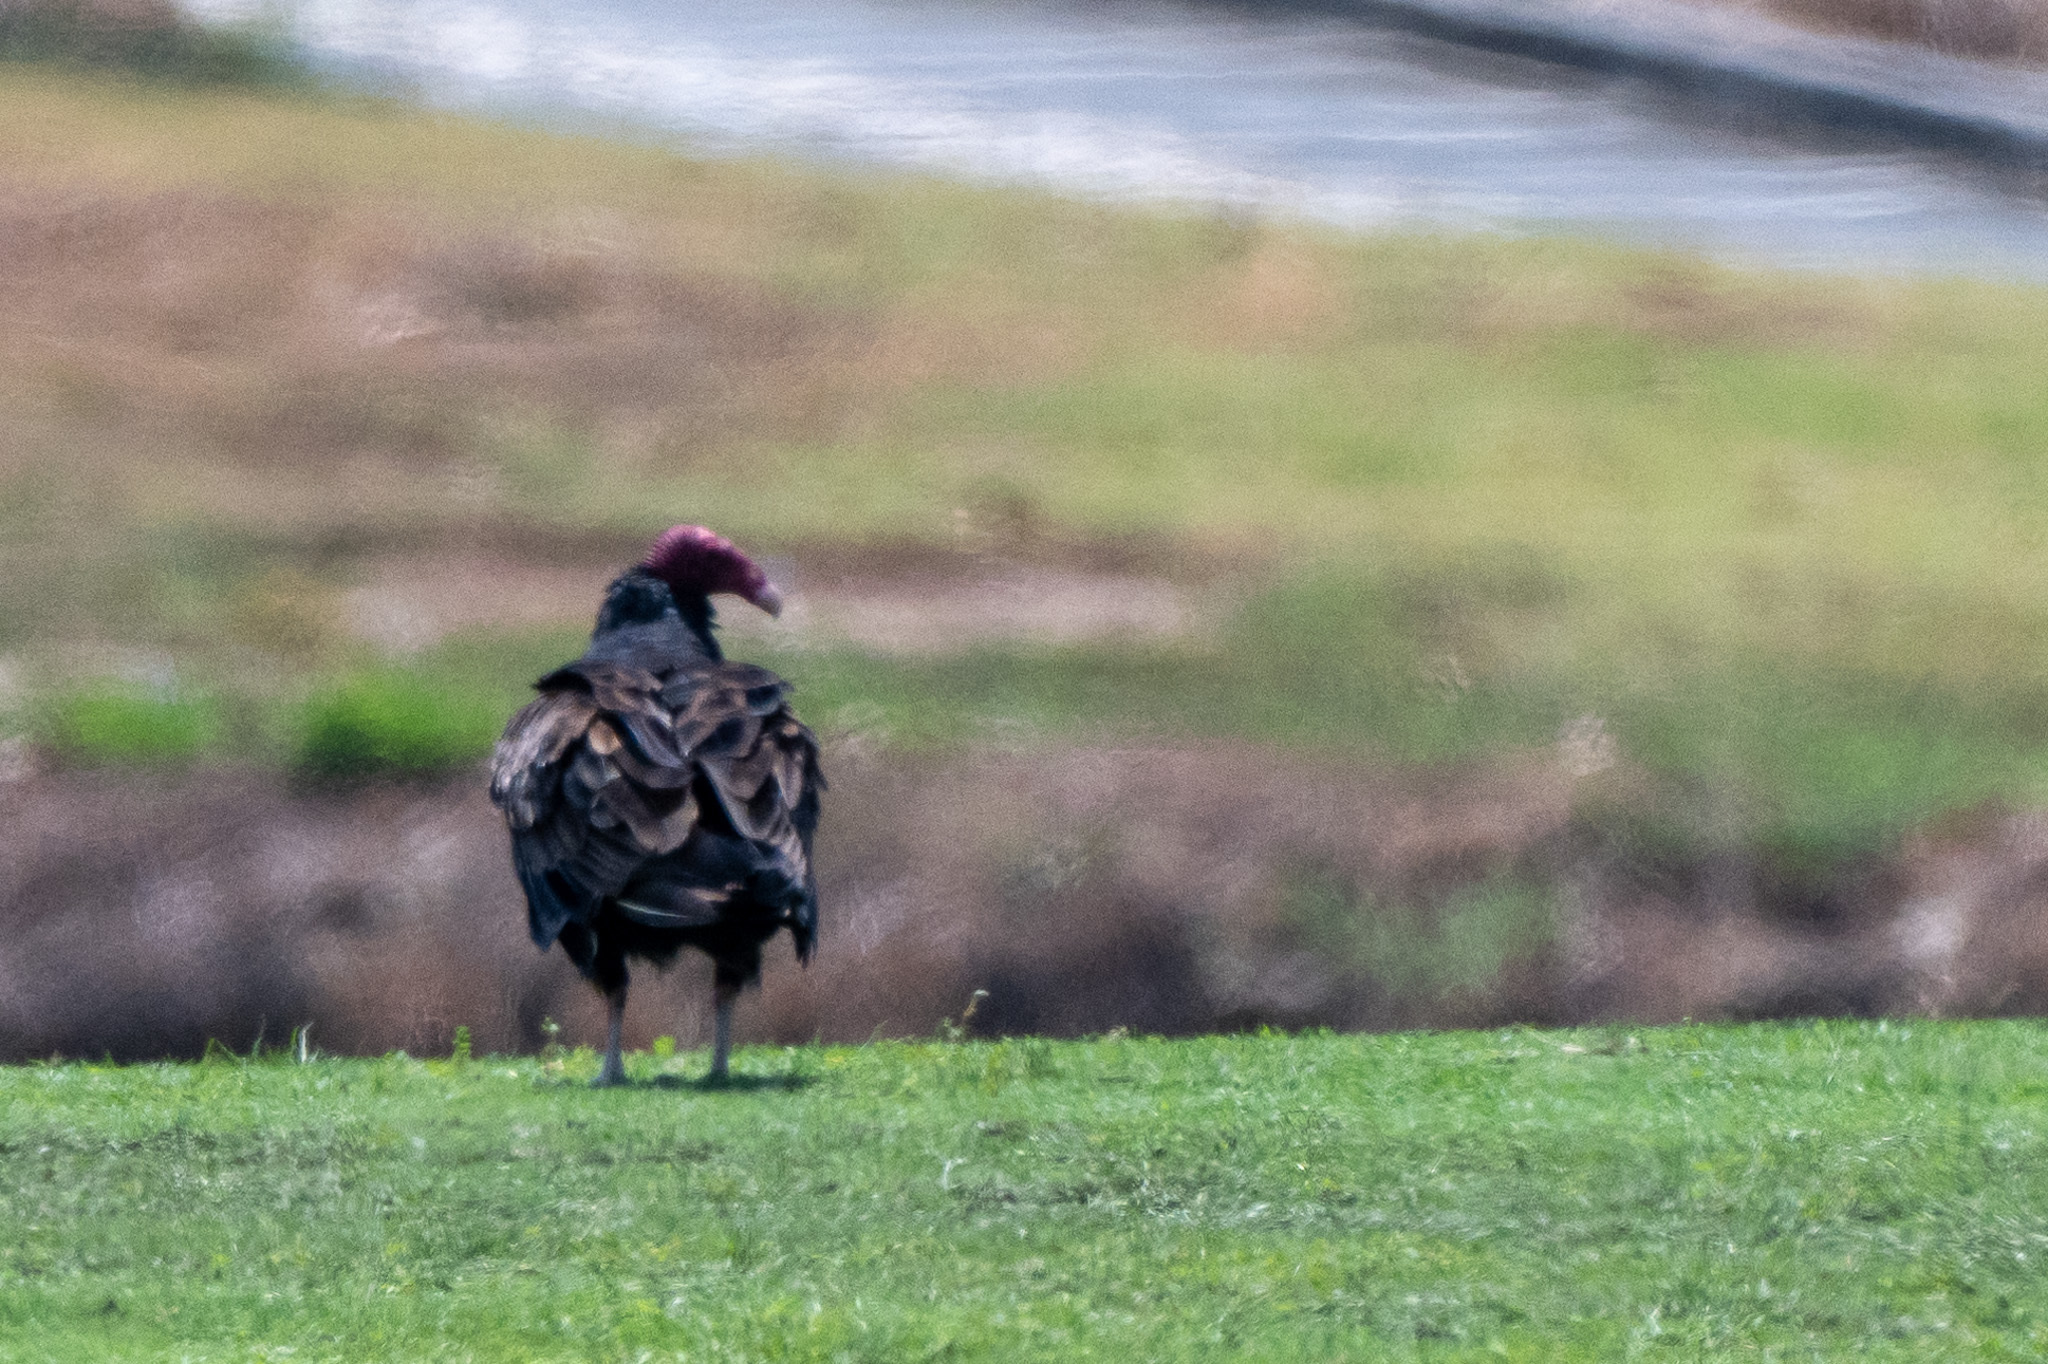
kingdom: Animalia
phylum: Chordata
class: Aves
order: Accipitriformes
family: Cathartidae
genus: Cathartes
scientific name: Cathartes aura
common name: Turkey vulture
